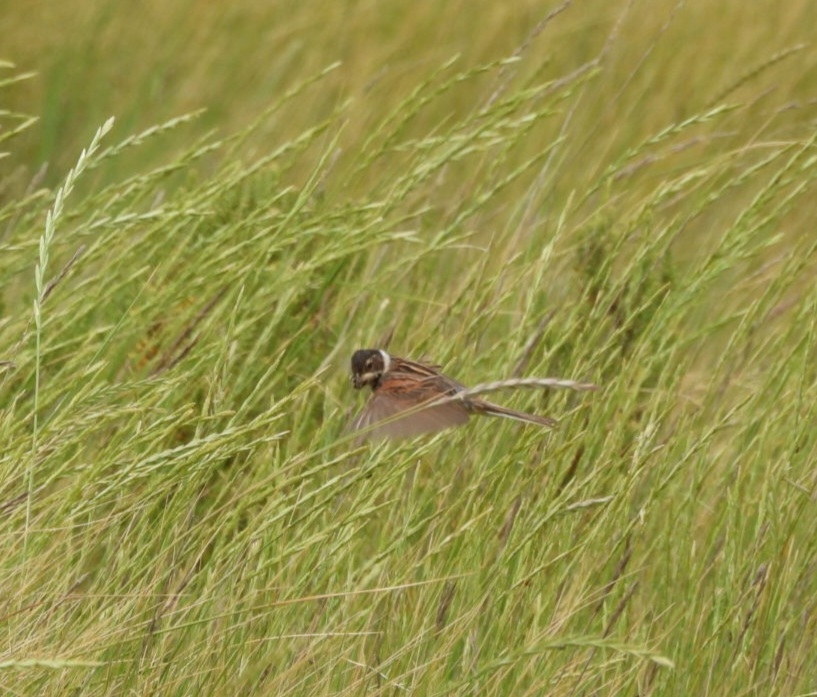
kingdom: Animalia
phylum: Chordata
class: Aves
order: Passeriformes
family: Emberizidae
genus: Emberiza
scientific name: Emberiza schoeniclus
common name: Reed bunting
